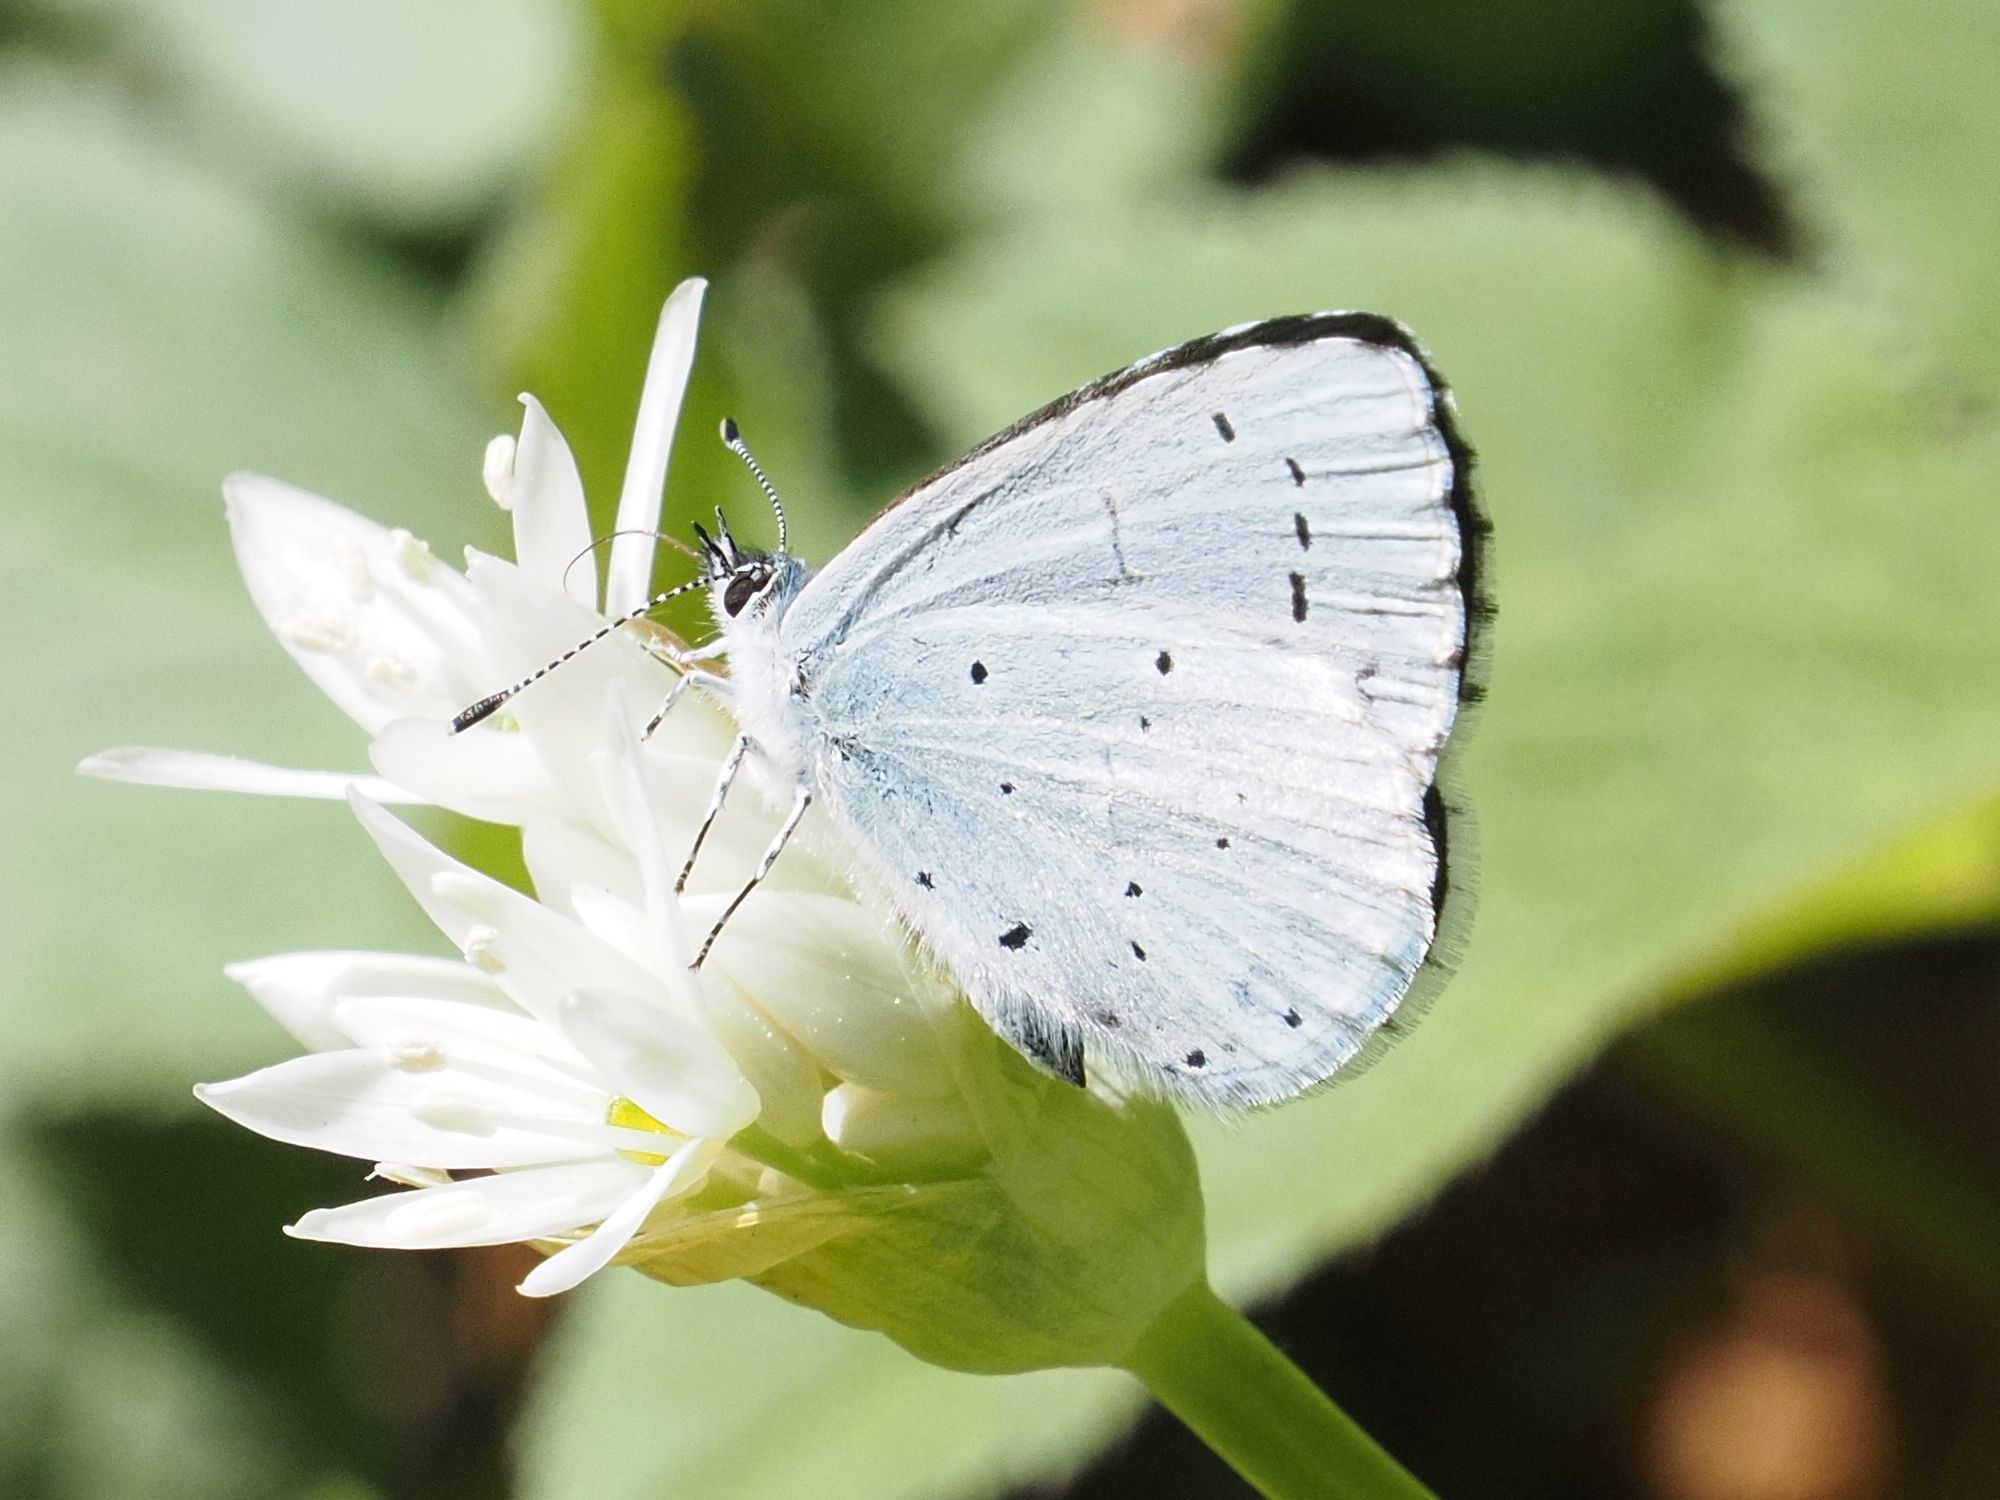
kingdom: Animalia
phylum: Arthropoda
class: Insecta
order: Lepidoptera
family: Lycaenidae
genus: Celastrina
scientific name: Celastrina argiolus
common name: Holly blue
